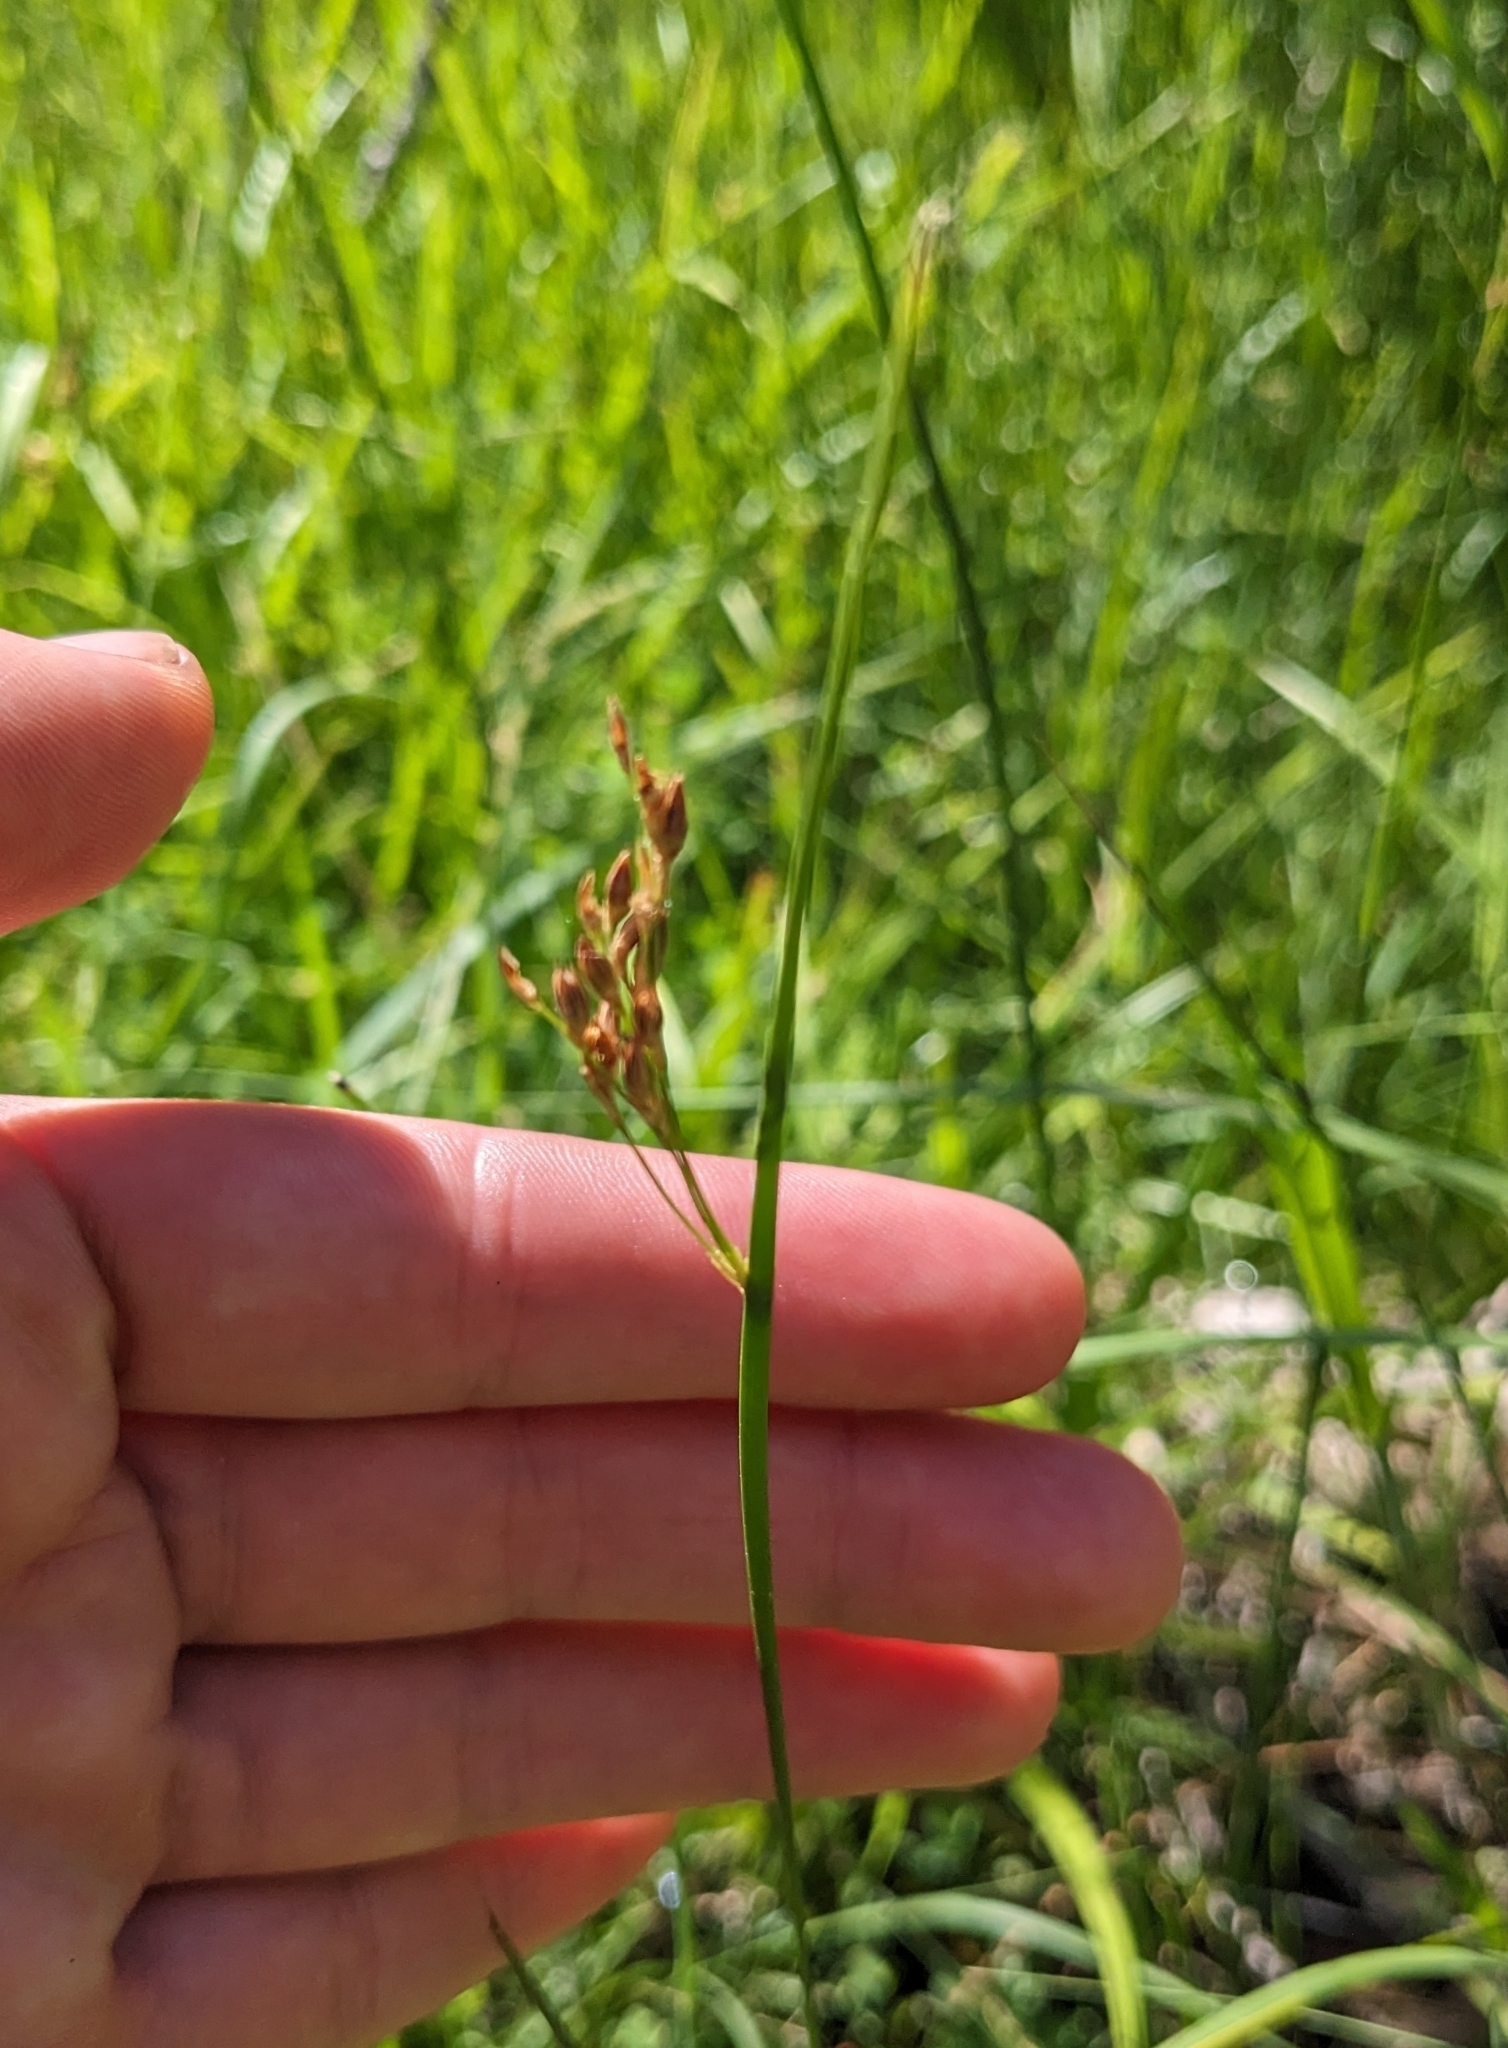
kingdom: Plantae
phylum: Tracheophyta
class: Liliopsida
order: Poales
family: Juncaceae
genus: Juncus
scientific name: Juncus balticus
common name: Baltic rush
